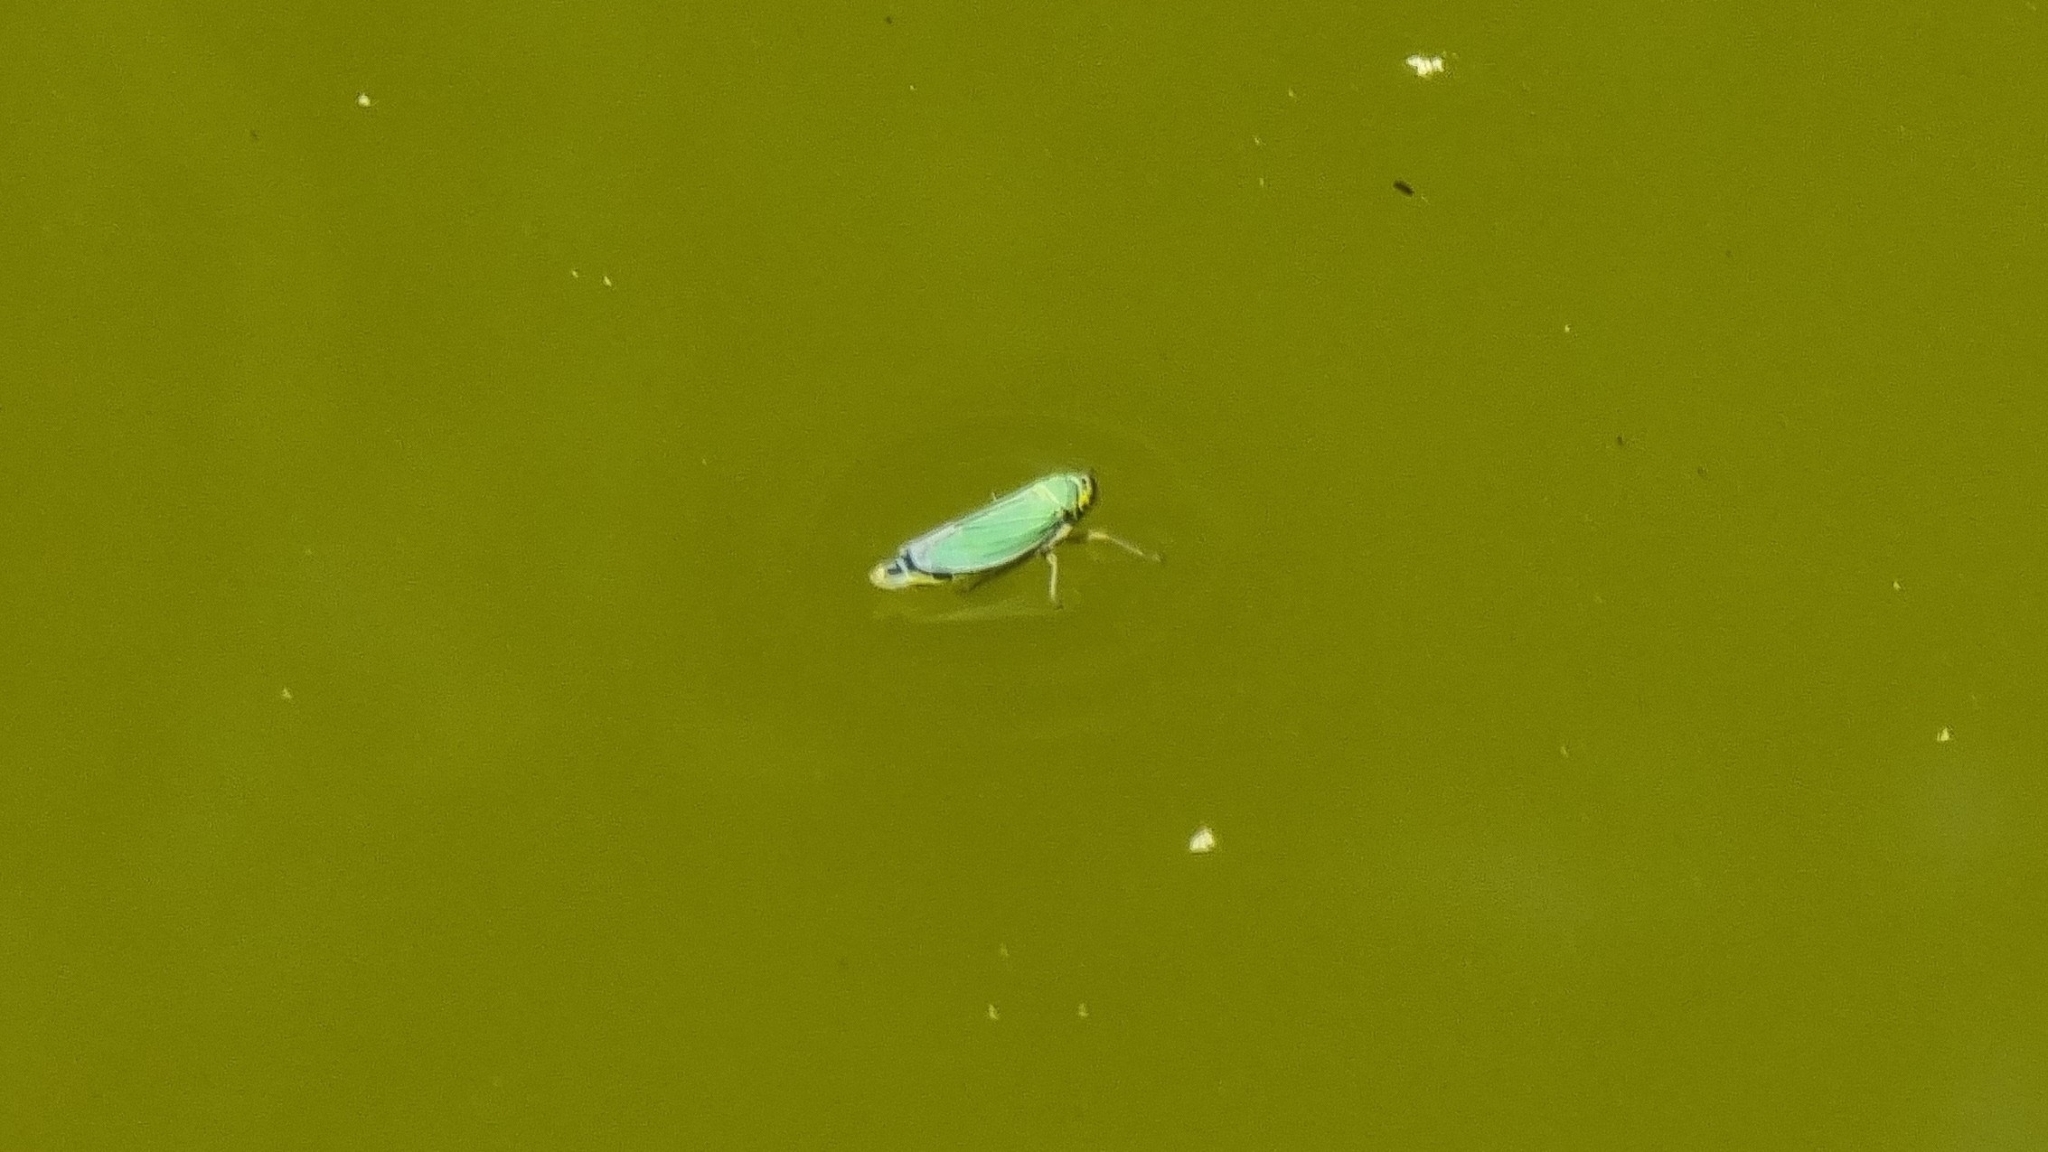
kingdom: Animalia
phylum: Arthropoda
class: Insecta
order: Hemiptera
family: Cicadellidae
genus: Cicadella
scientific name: Cicadella viridis
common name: Leafhopper
